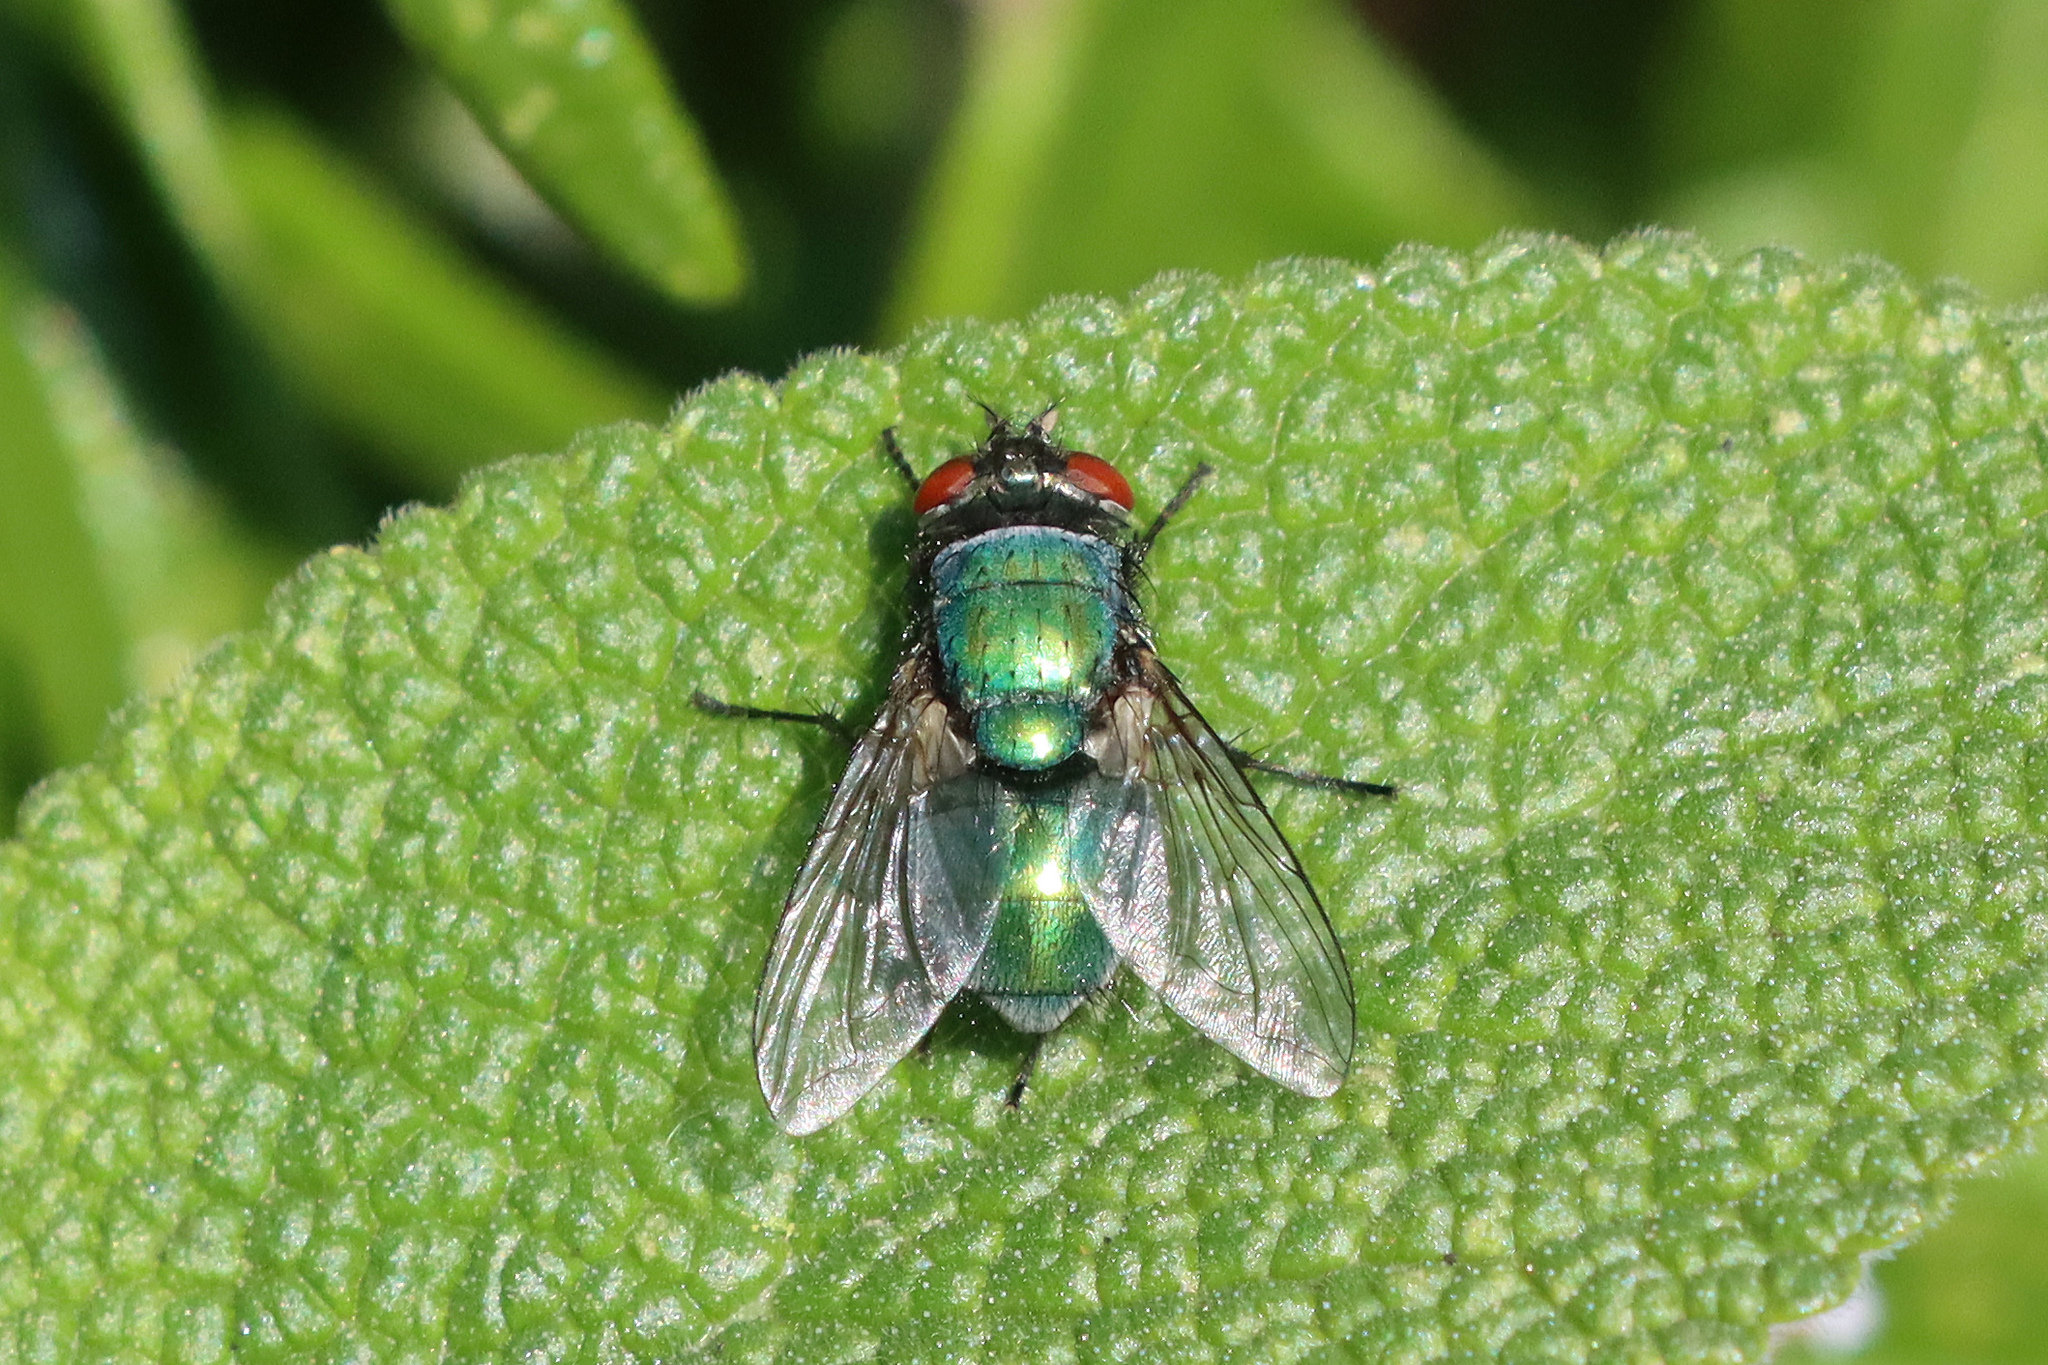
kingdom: Animalia
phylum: Arthropoda
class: Insecta
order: Diptera
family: Calliphoridae
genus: Lucilia
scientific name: Lucilia
